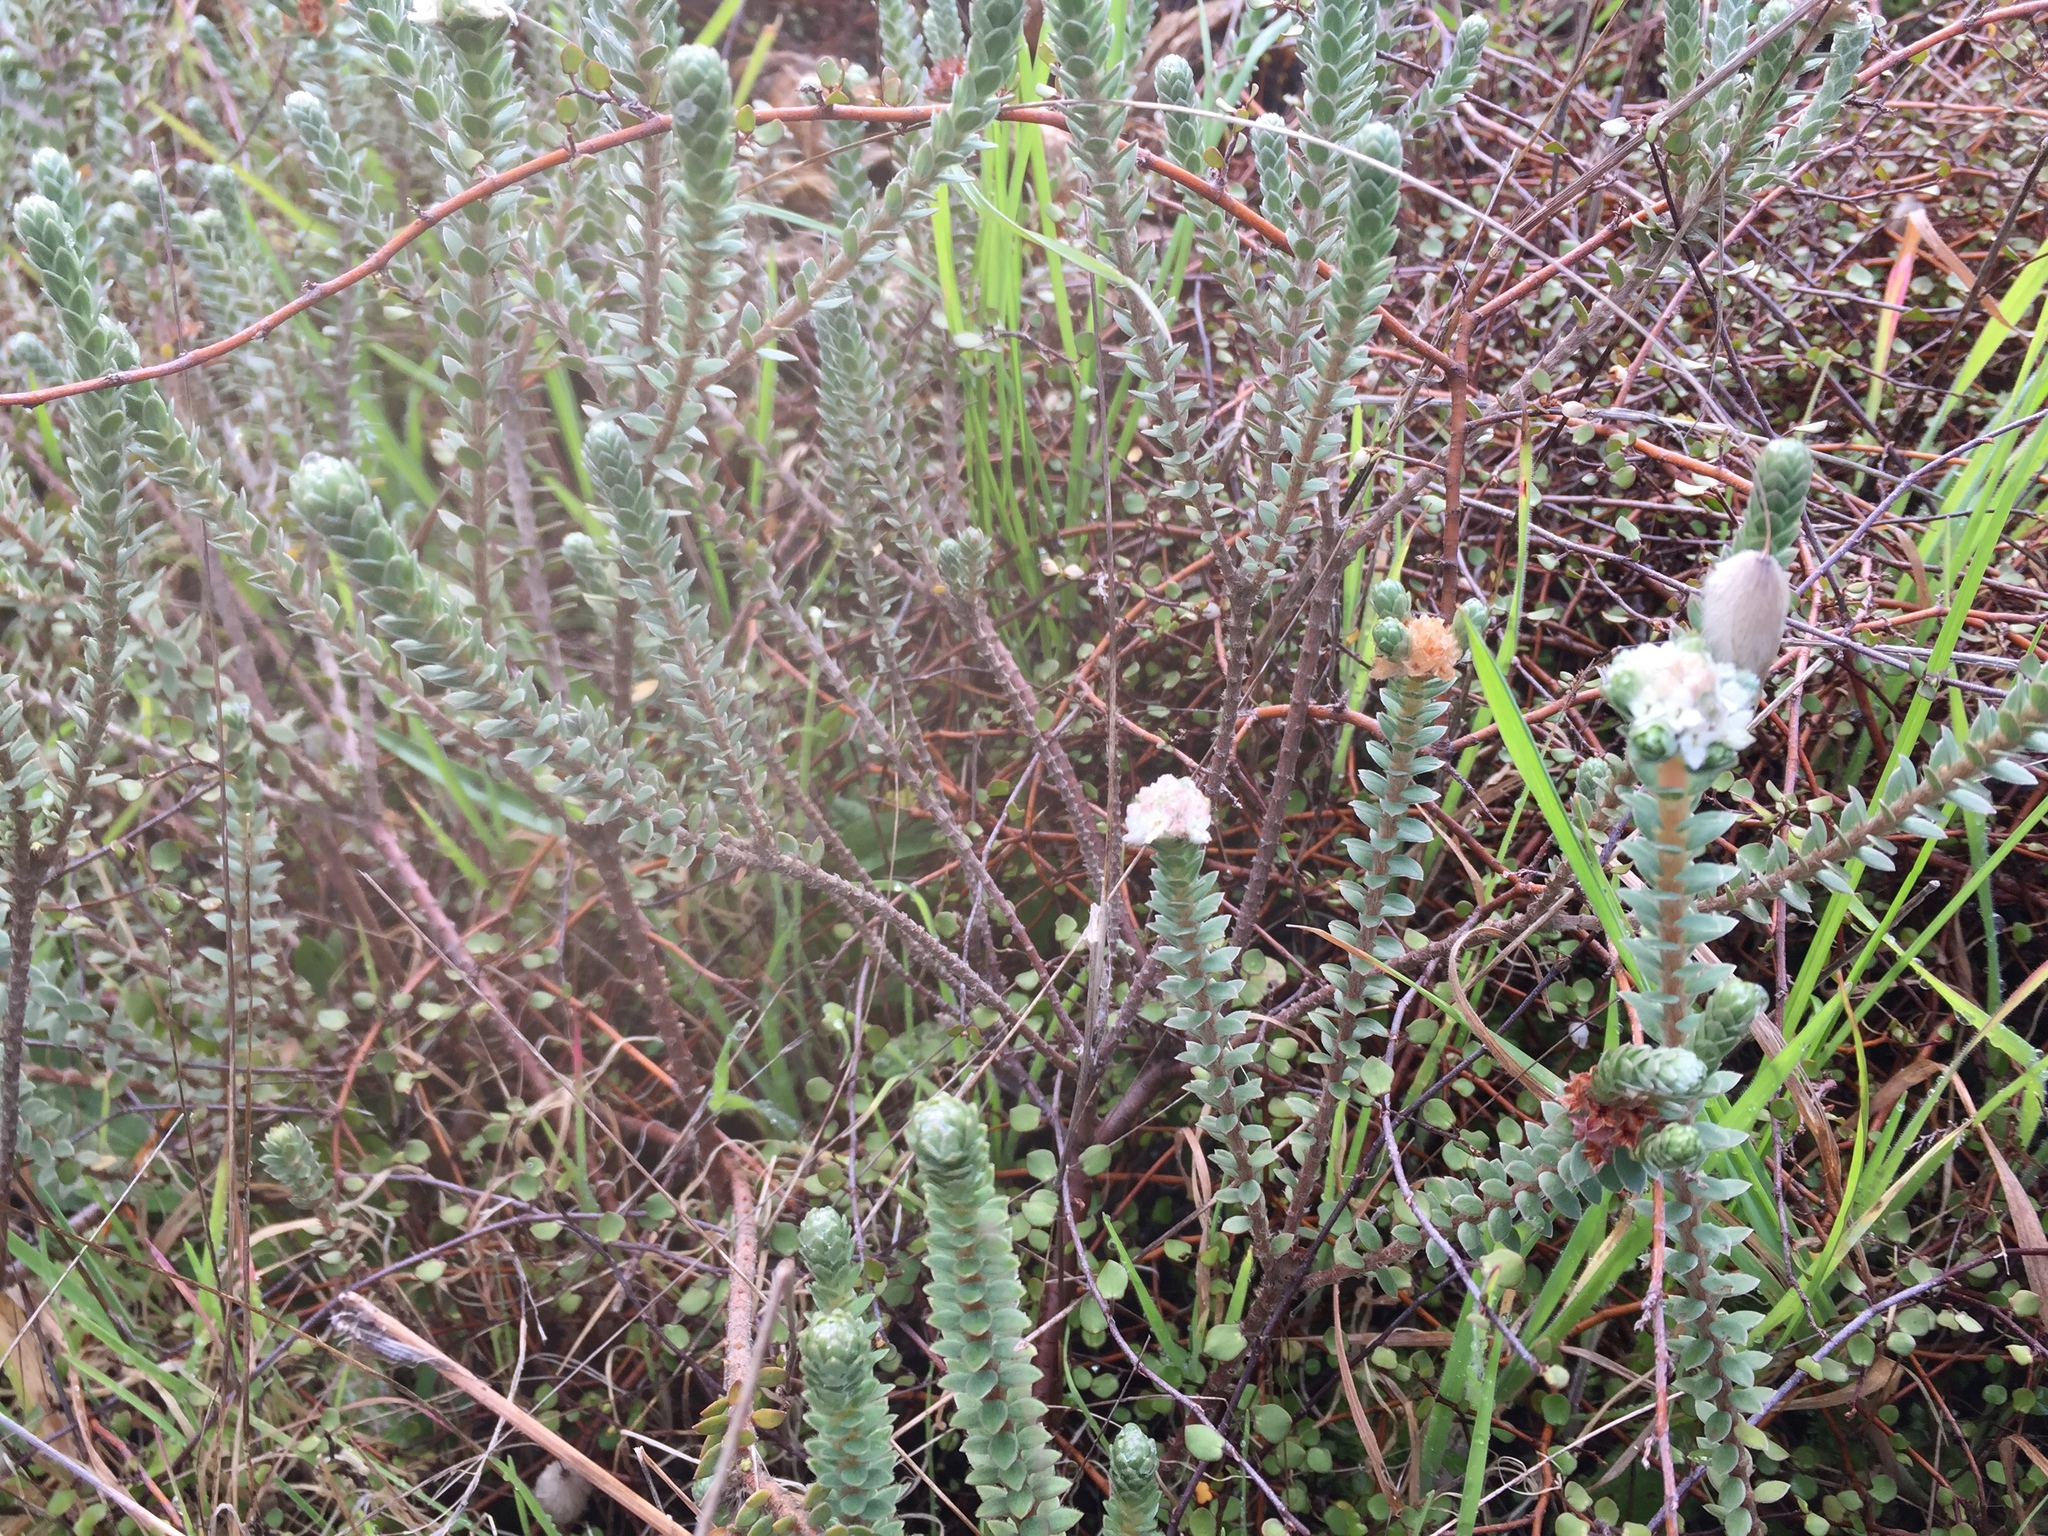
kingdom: Plantae
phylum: Tracheophyta
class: Magnoliopsida
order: Malvales
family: Thymelaeaceae
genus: Pimelea
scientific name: Pimelea villosa
